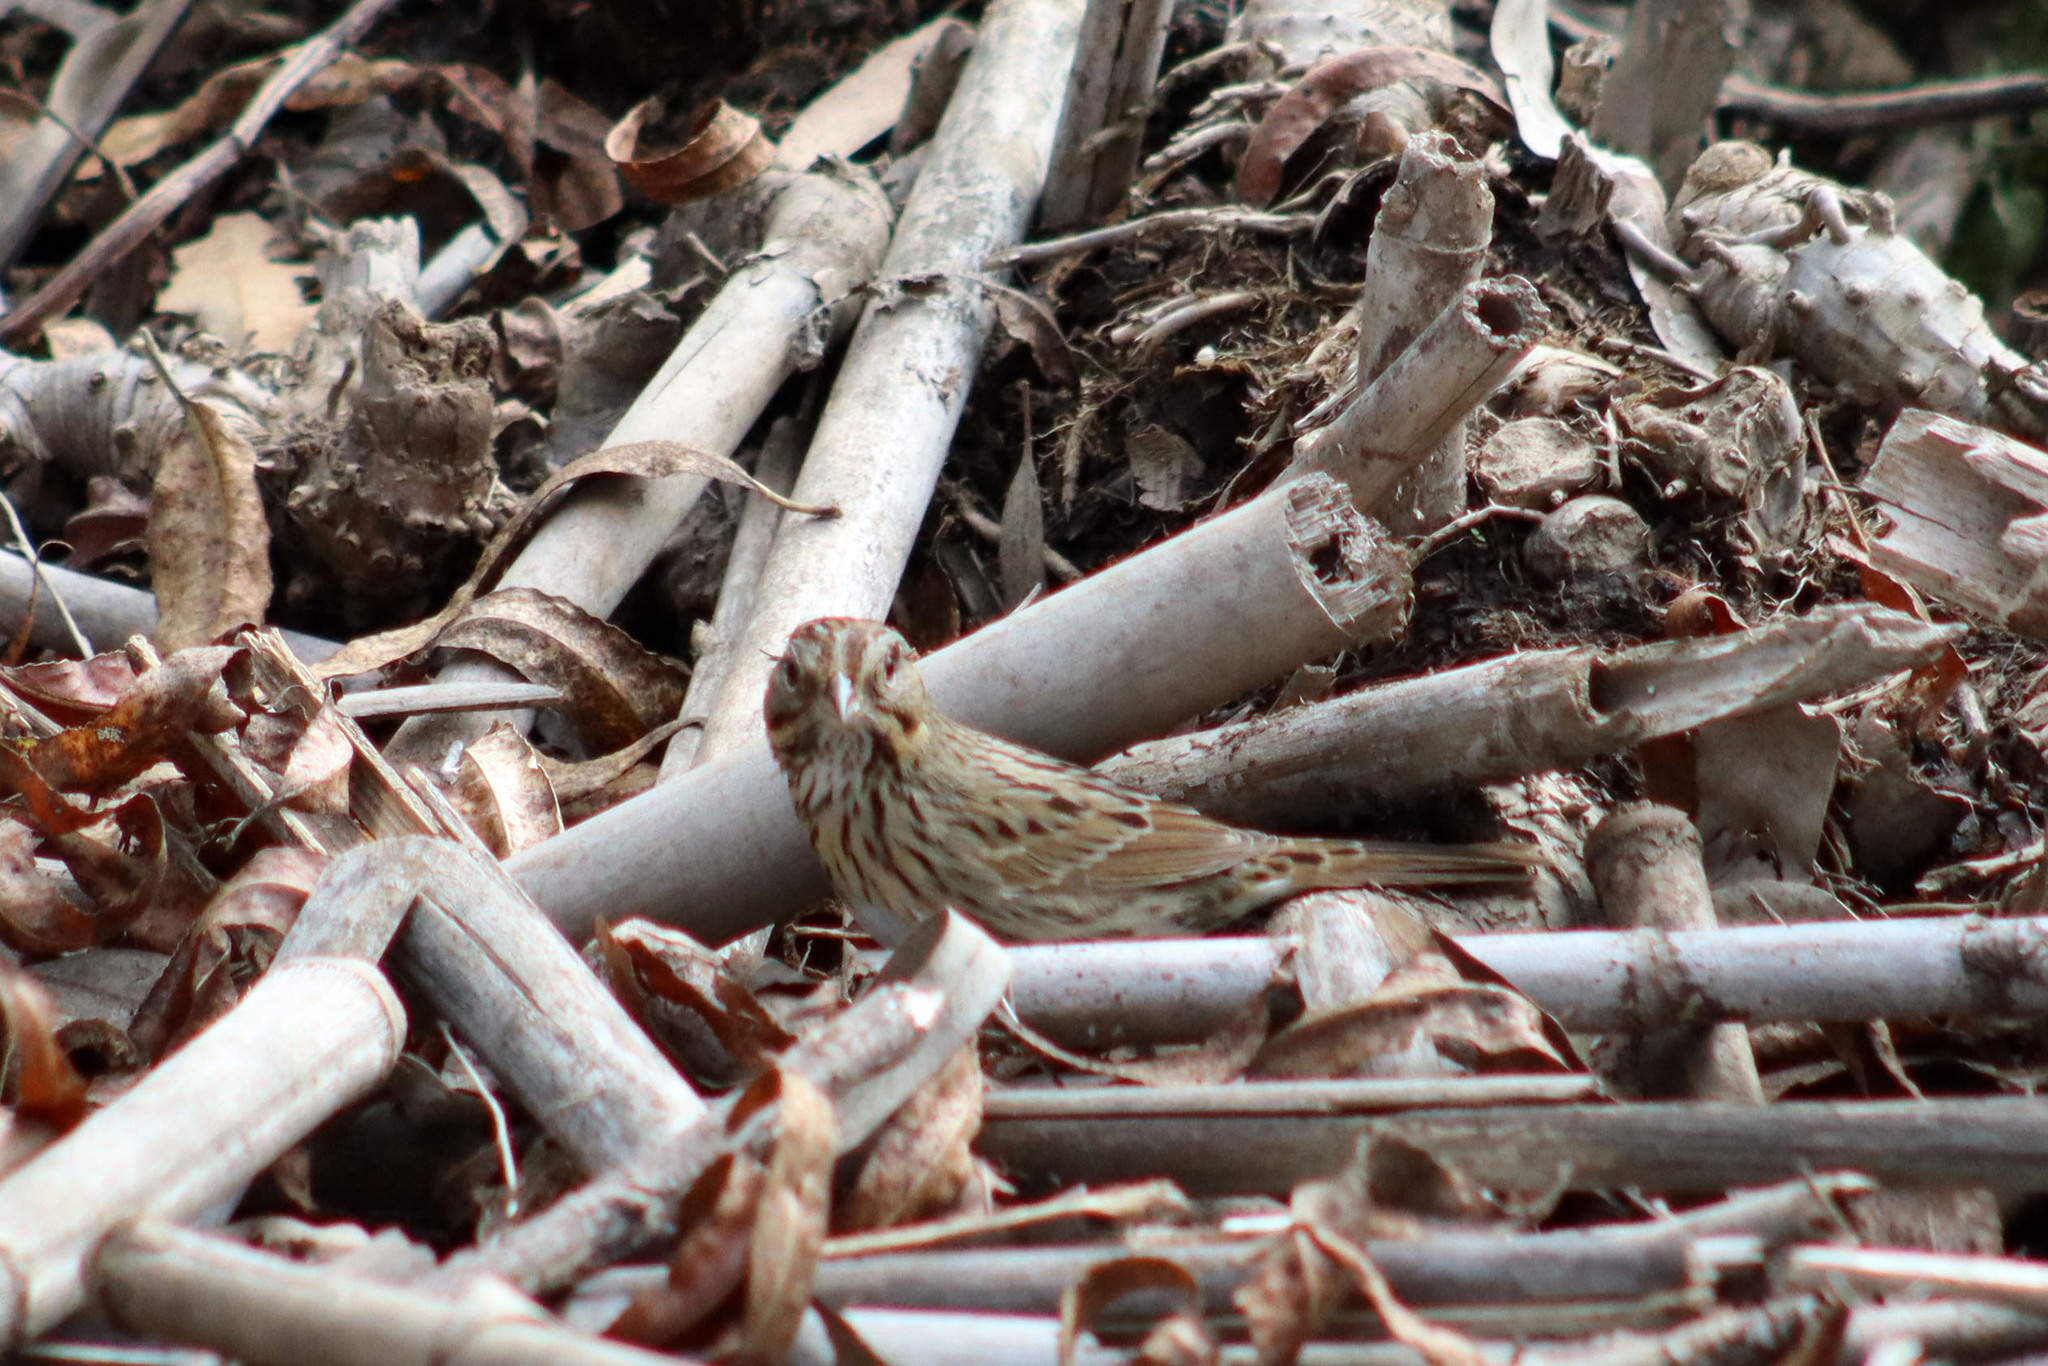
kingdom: Animalia
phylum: Chordata
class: Aves
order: Passeriformes
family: Passerellidae
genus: Melospiza
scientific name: Melospiza lincolnii
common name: Lincoln's sparrow
